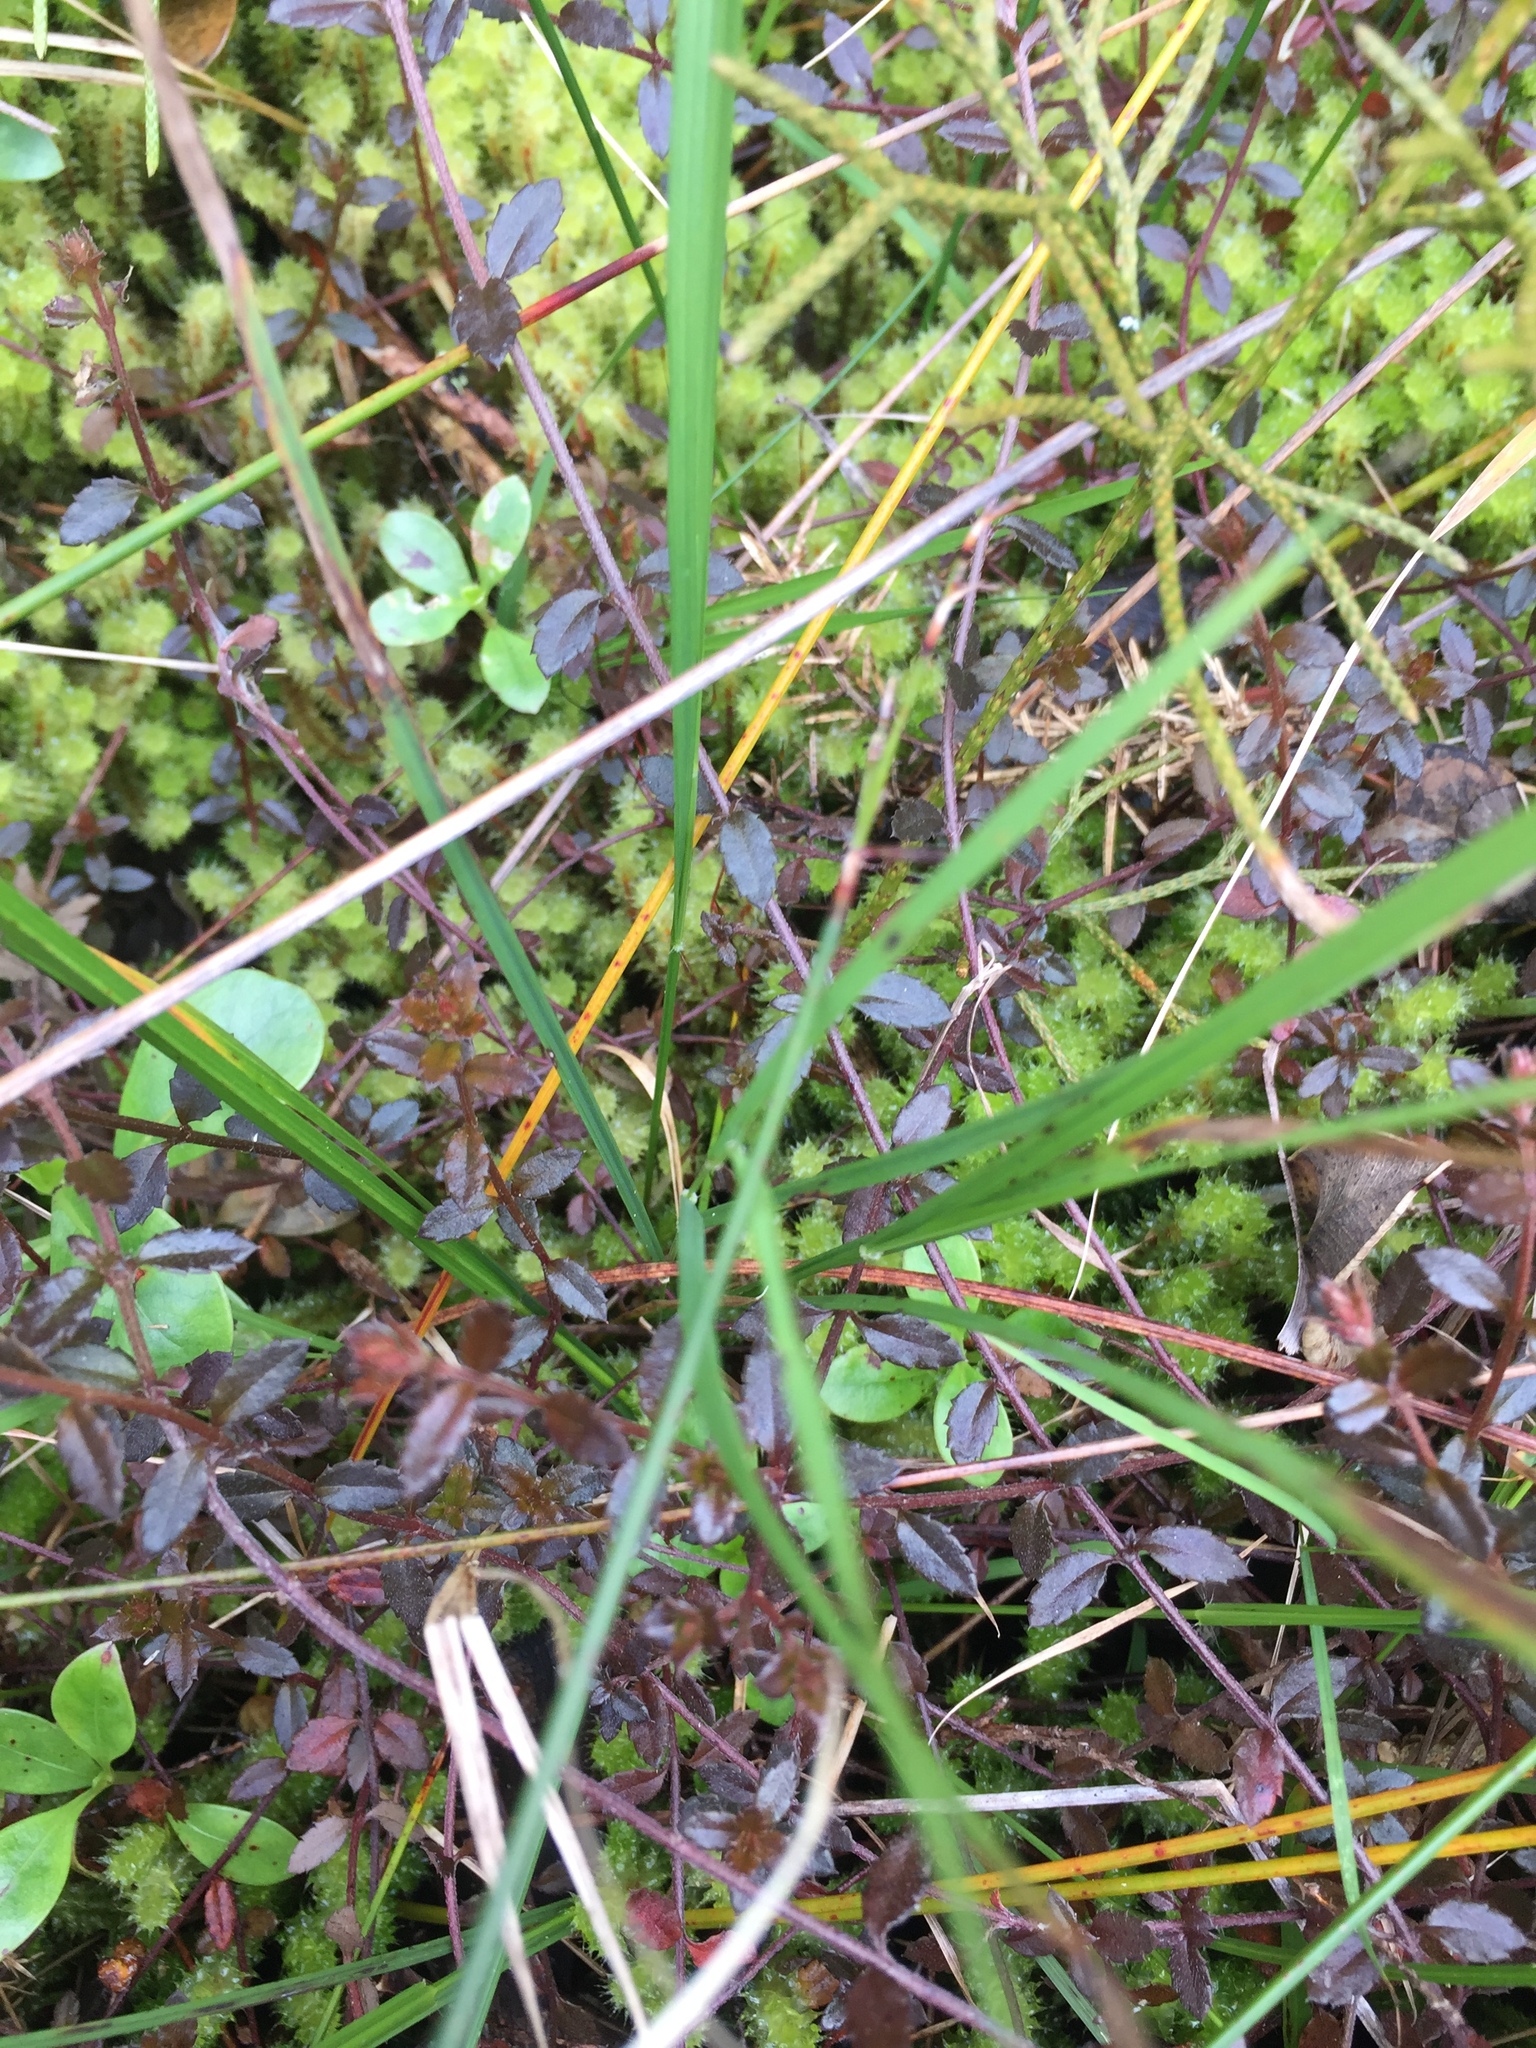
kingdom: Plantae
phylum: Tracheophyta
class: Magnoliopsida
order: Saxifragales
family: Haloragaceae
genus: Gonocarpus
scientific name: Gonocarpus incanus
